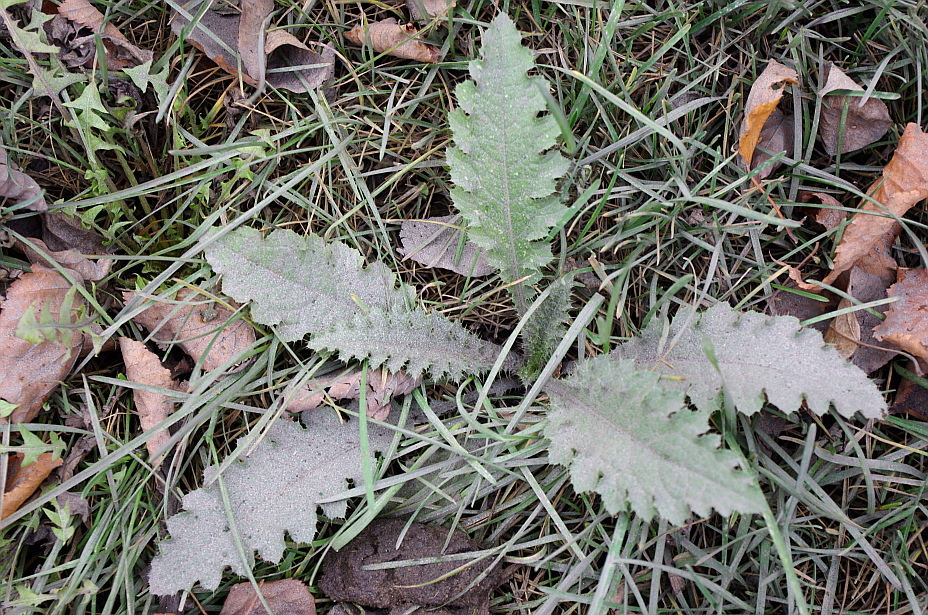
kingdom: Plantae
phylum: Tracheophyta
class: Magnoliopsida
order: Asterales
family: Asteraceae
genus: Carduus
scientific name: Carduus crispus
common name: Welted thistle
